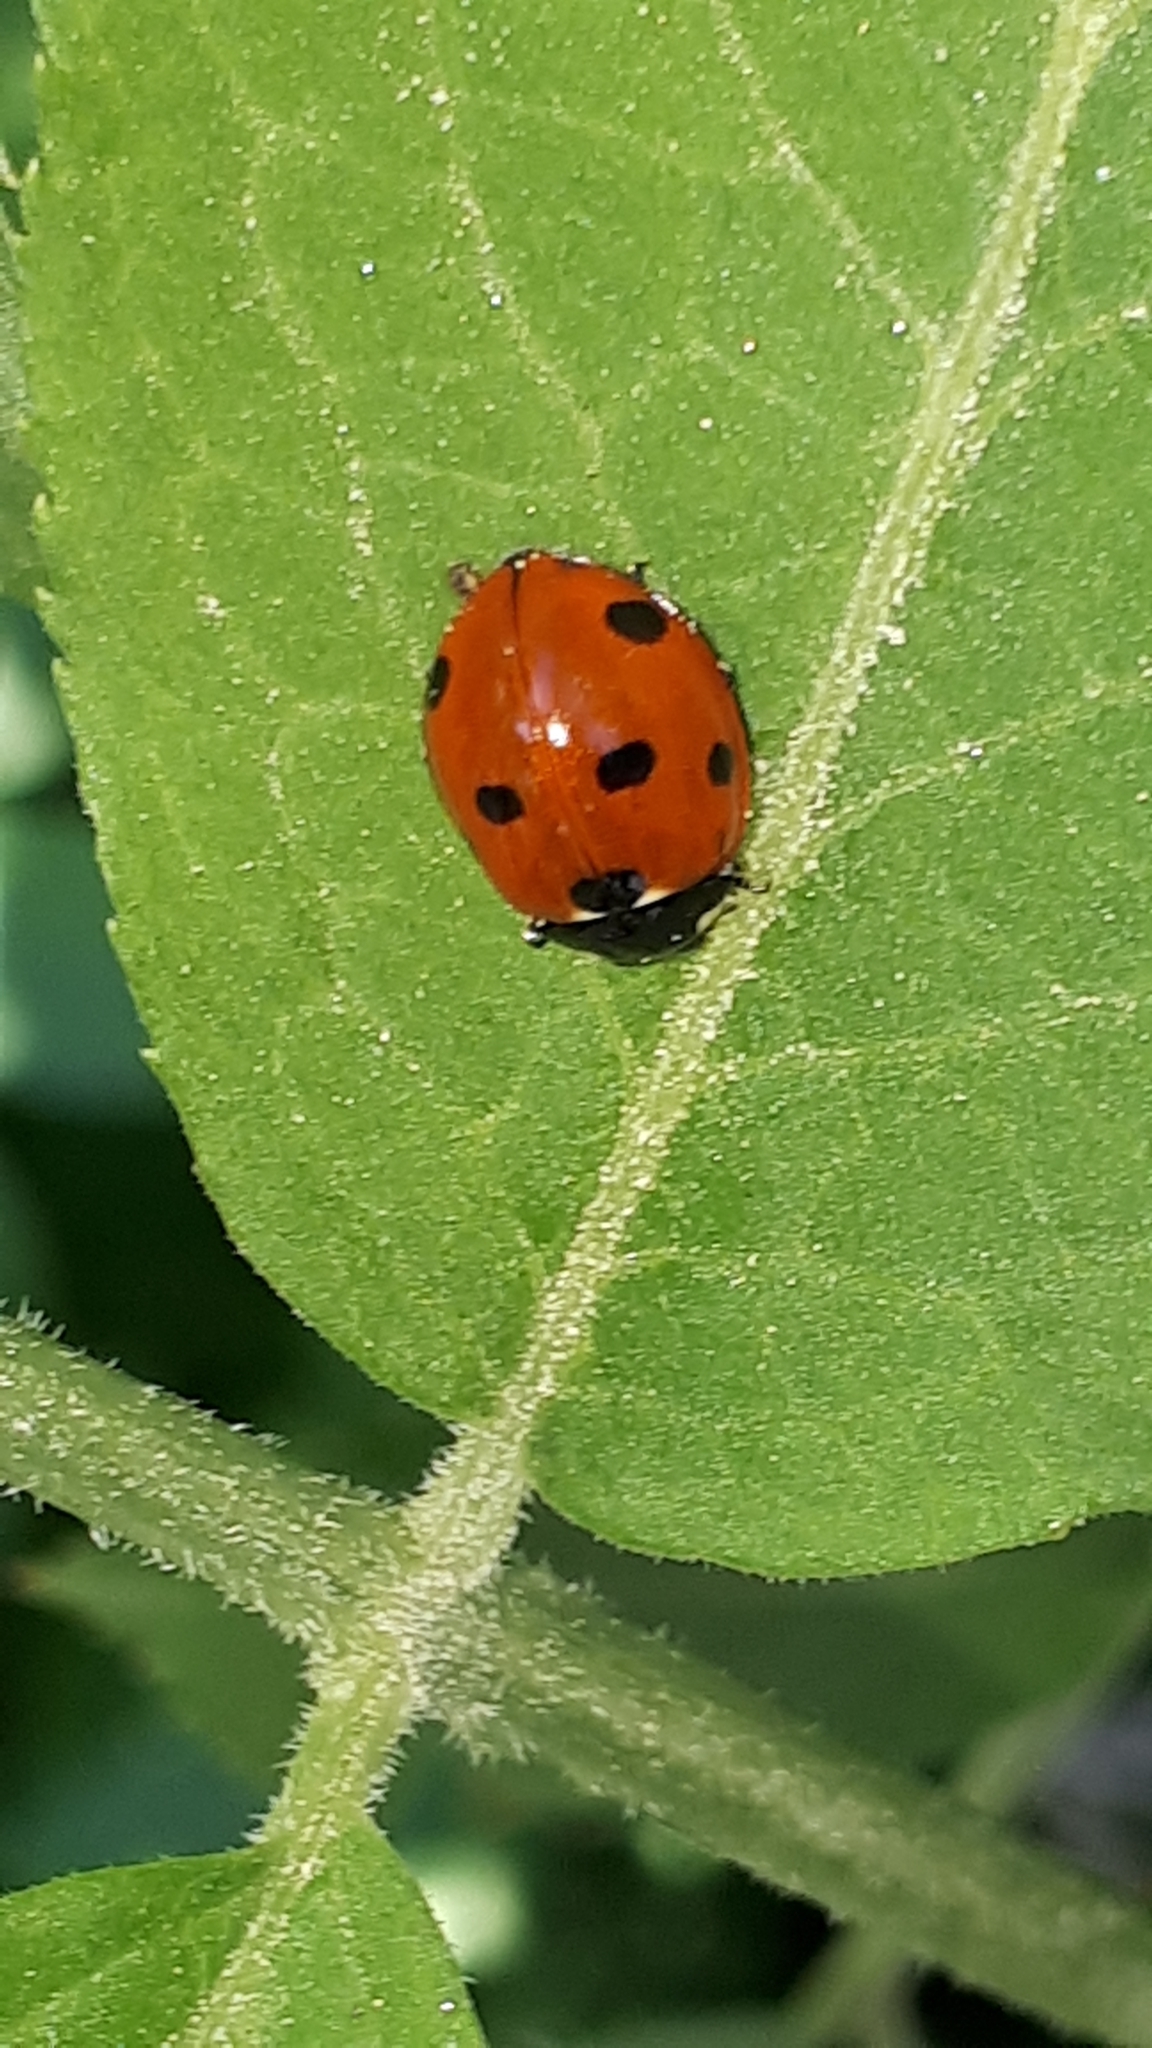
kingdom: Animalia
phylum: Arthropoda
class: Insecta
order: Coleoptera
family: Coccinellidae
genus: Coccinella
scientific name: Coccinella septempunctata
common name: Sevenspotted lady beetle
